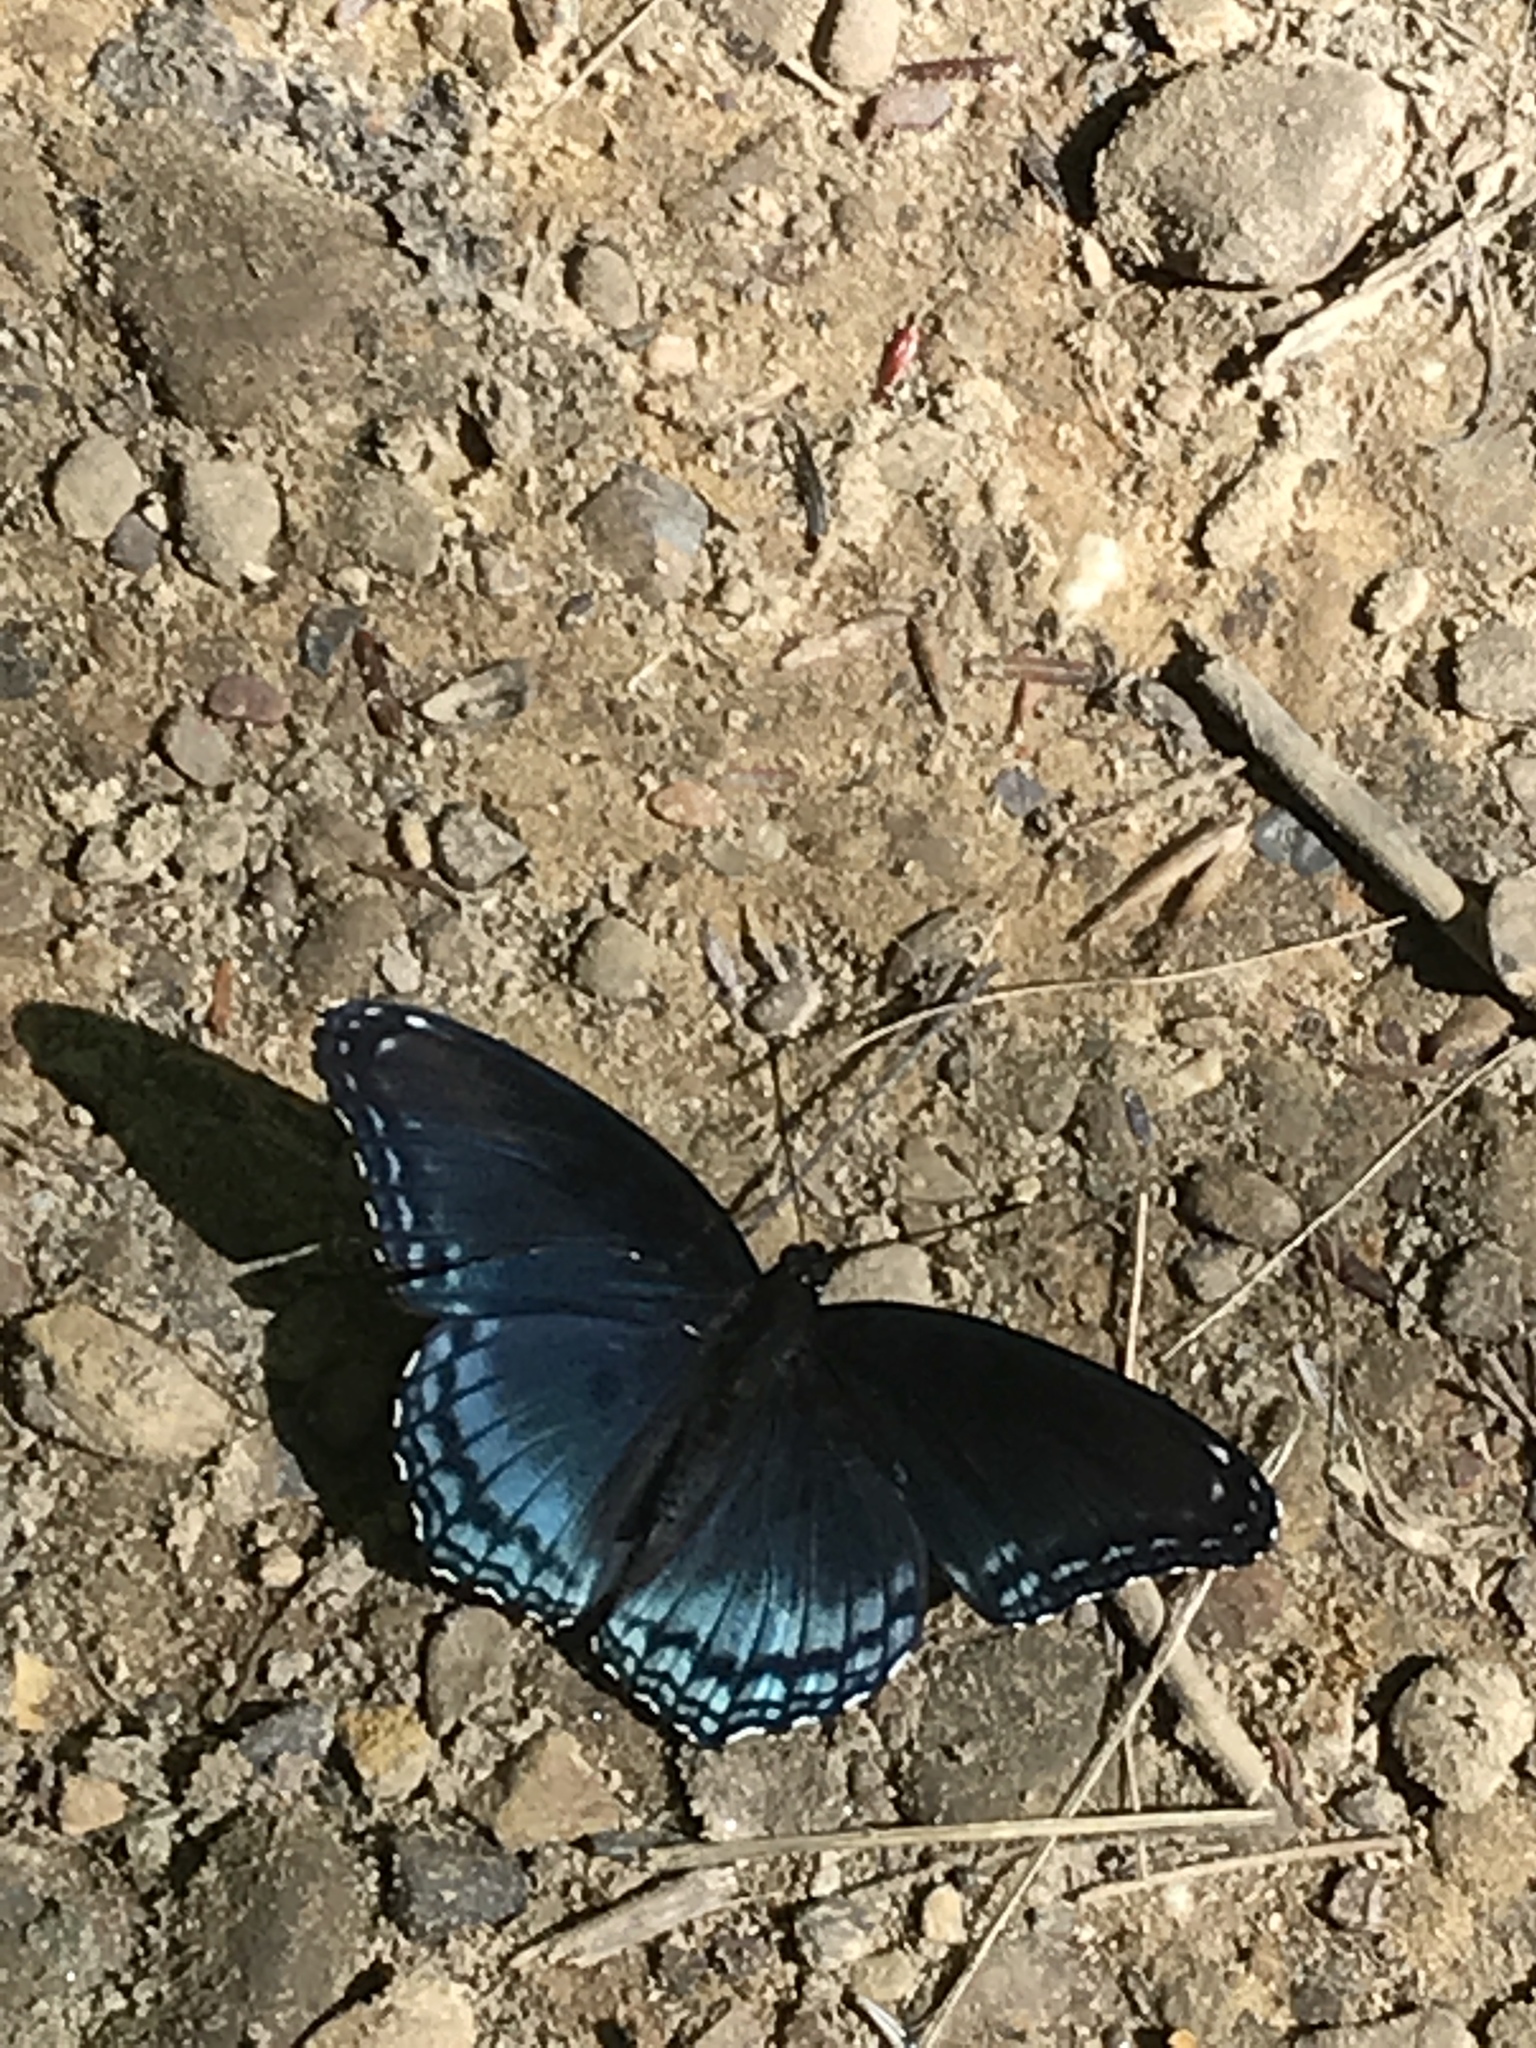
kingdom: Animalia
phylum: Arthropoda
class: Insecta
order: Lepidoptera
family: Nymphalidae
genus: Limenitis
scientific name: Limenitis arthemis
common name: Red-spotted admiral
